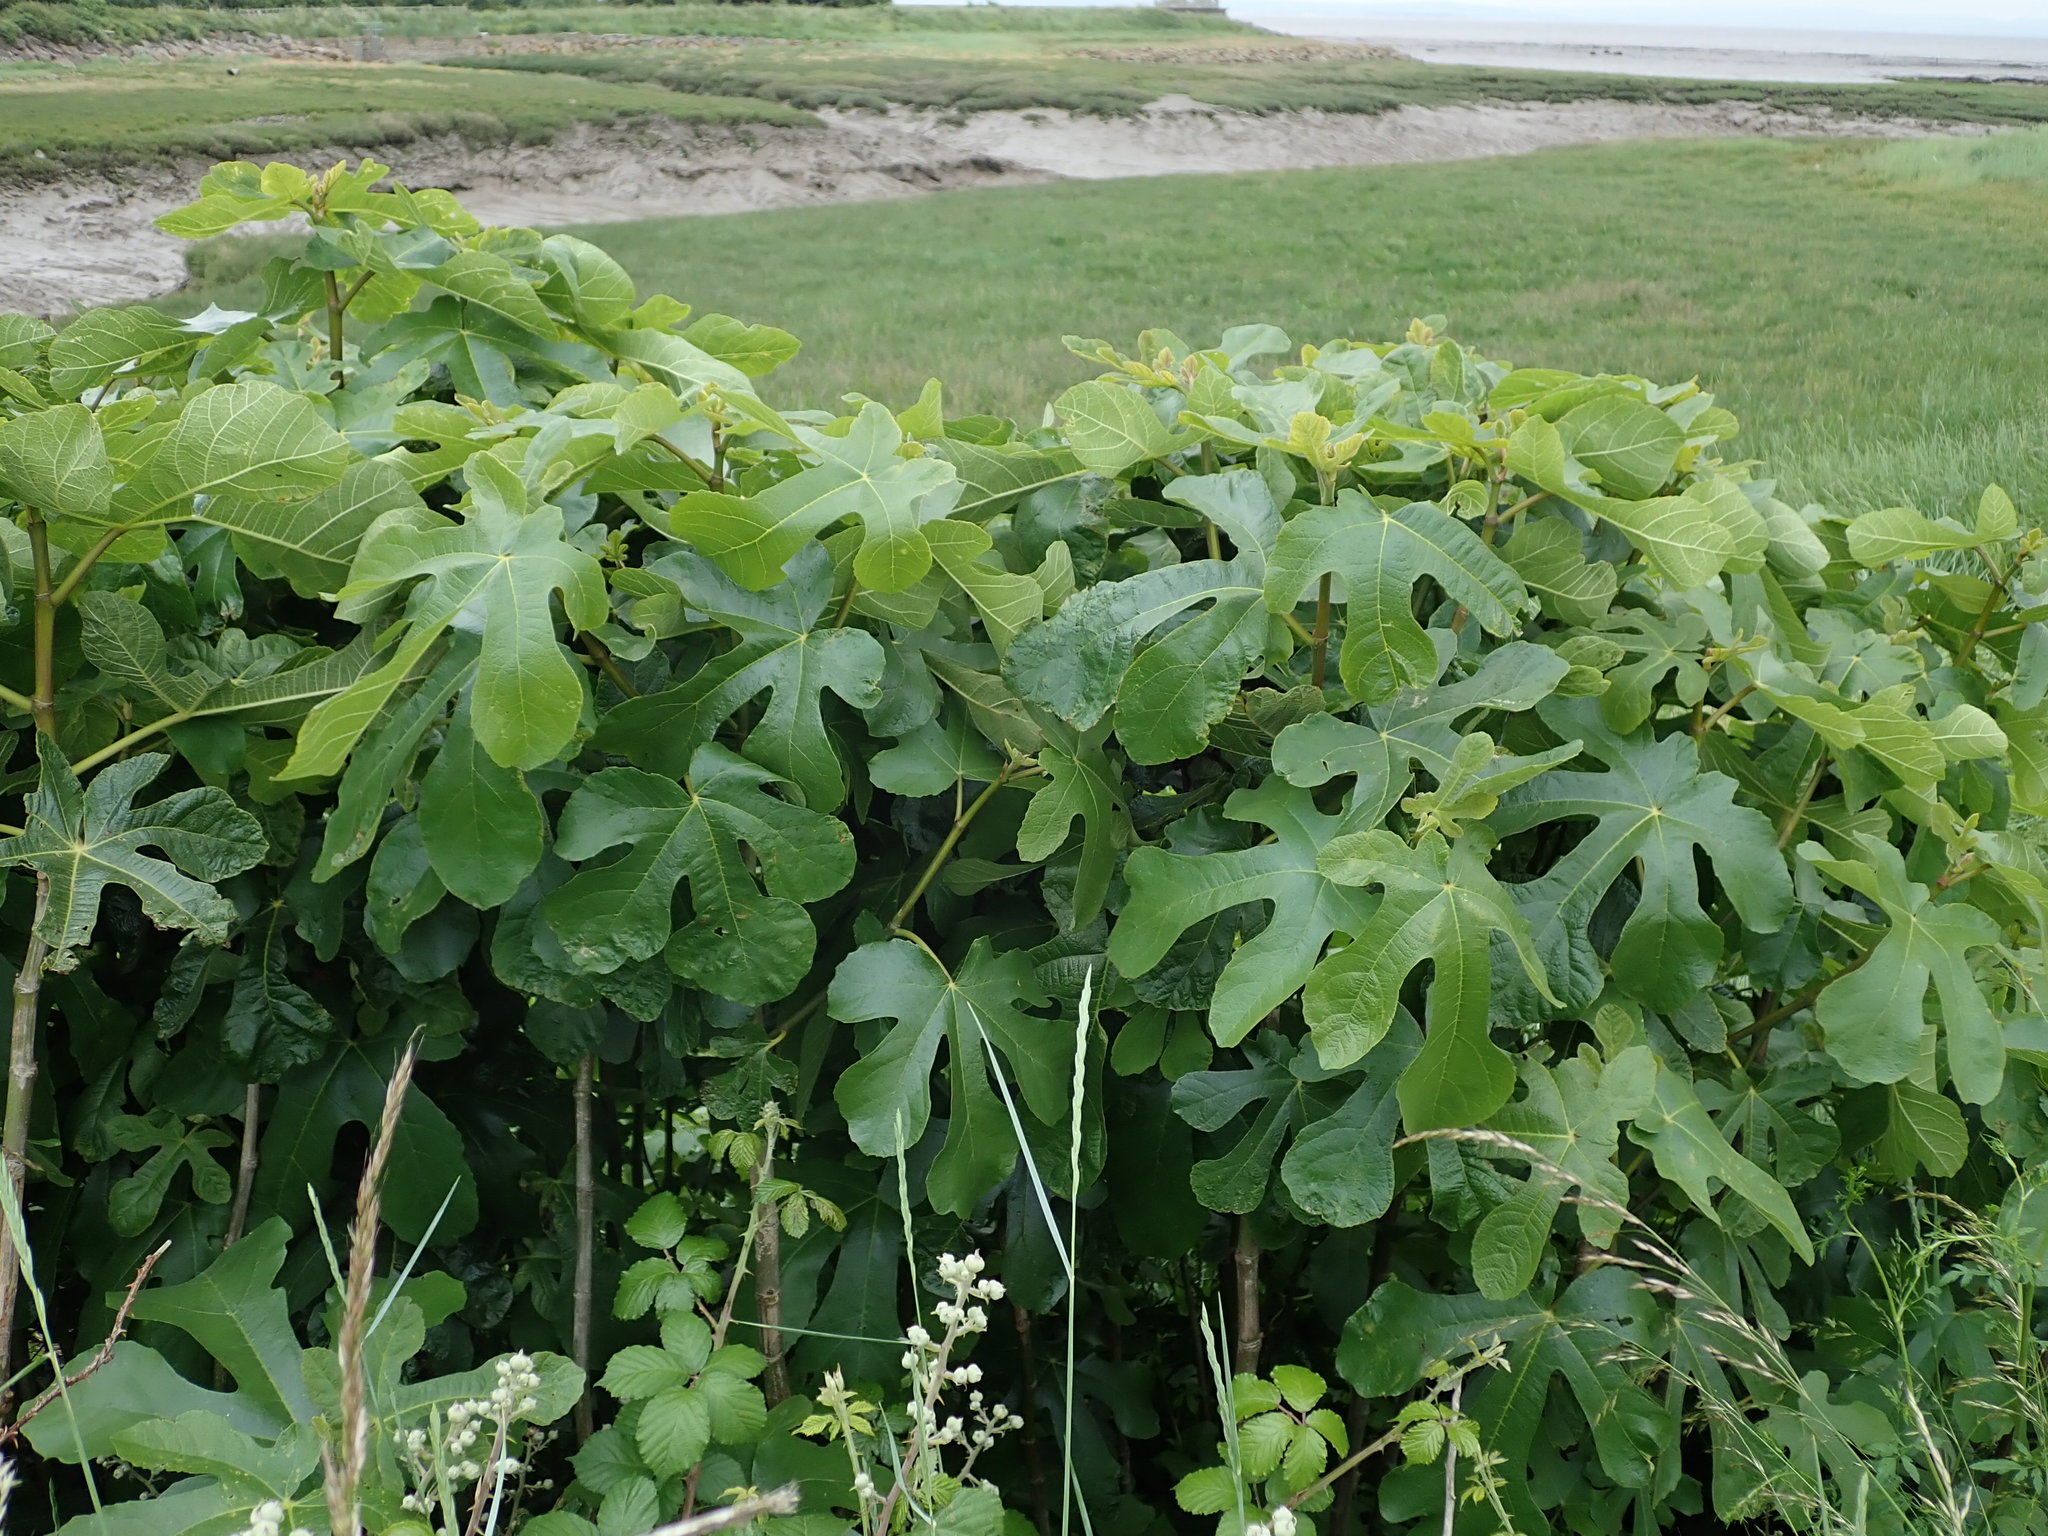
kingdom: Plantae
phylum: Tracheophyta
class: Magnoliopsida
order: Rosales
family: Moraceae
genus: Ficus
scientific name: Ficus carica
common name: Fig
